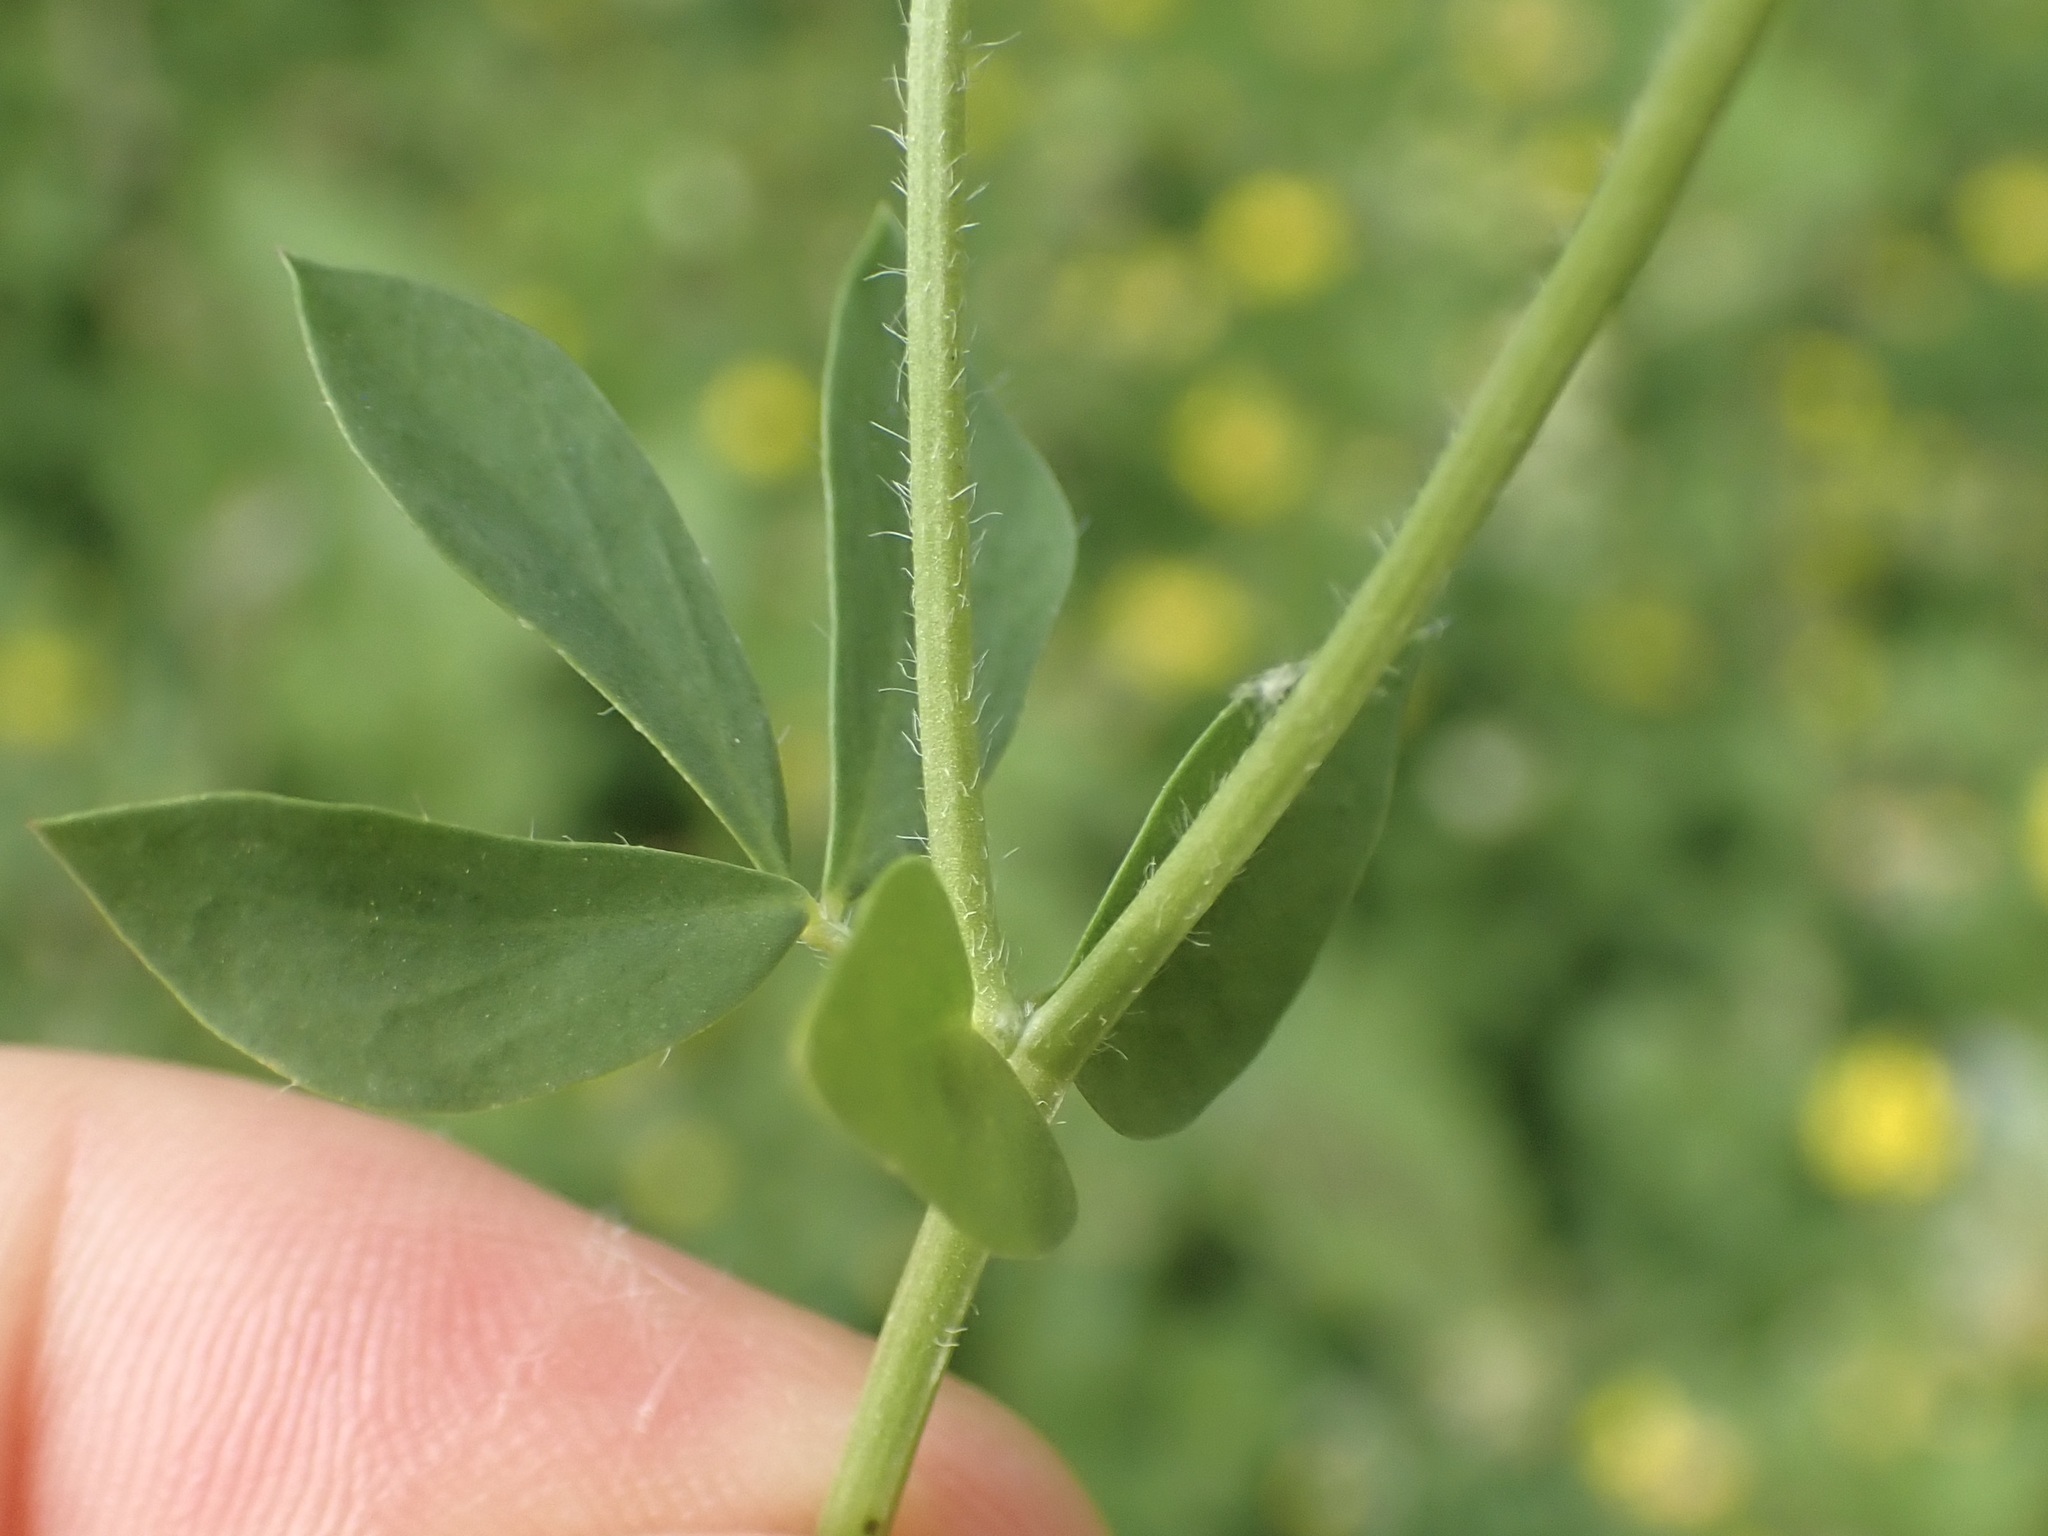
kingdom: Plantae
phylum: Tracheophyta
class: Magnoliopsida
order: Fabales
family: Fabaceae
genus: Lotus
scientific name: Lotus corniculatus
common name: Common bird's-foot-trefoil
